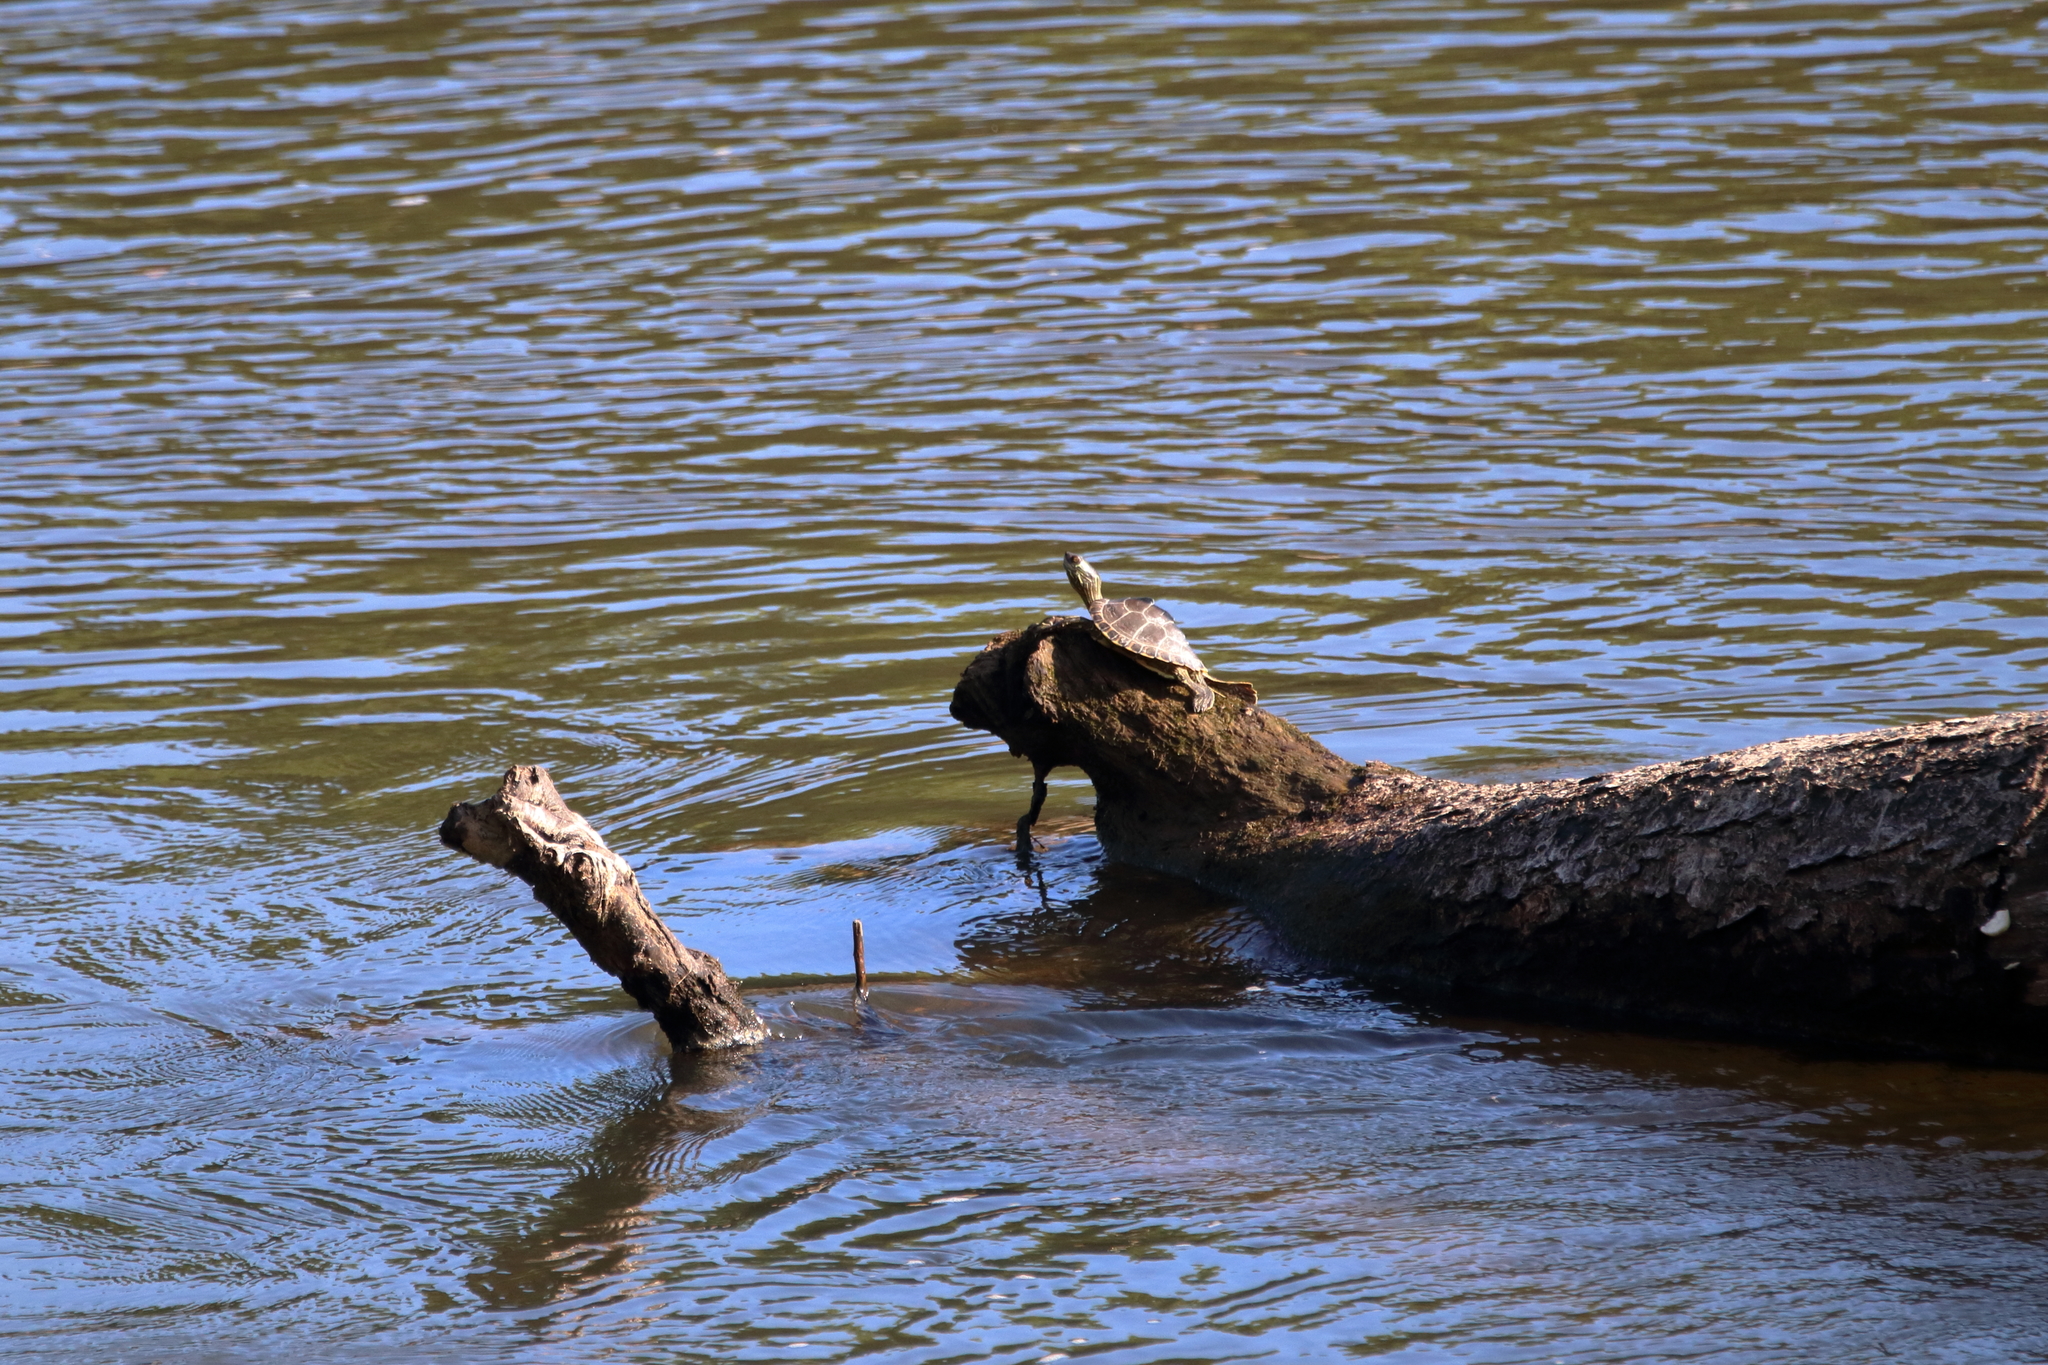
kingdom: Animalia
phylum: Chordata
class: Testudines
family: Emydidae
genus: Graptemys
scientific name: Graptemys pearlensis
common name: Pearl river map turtle
